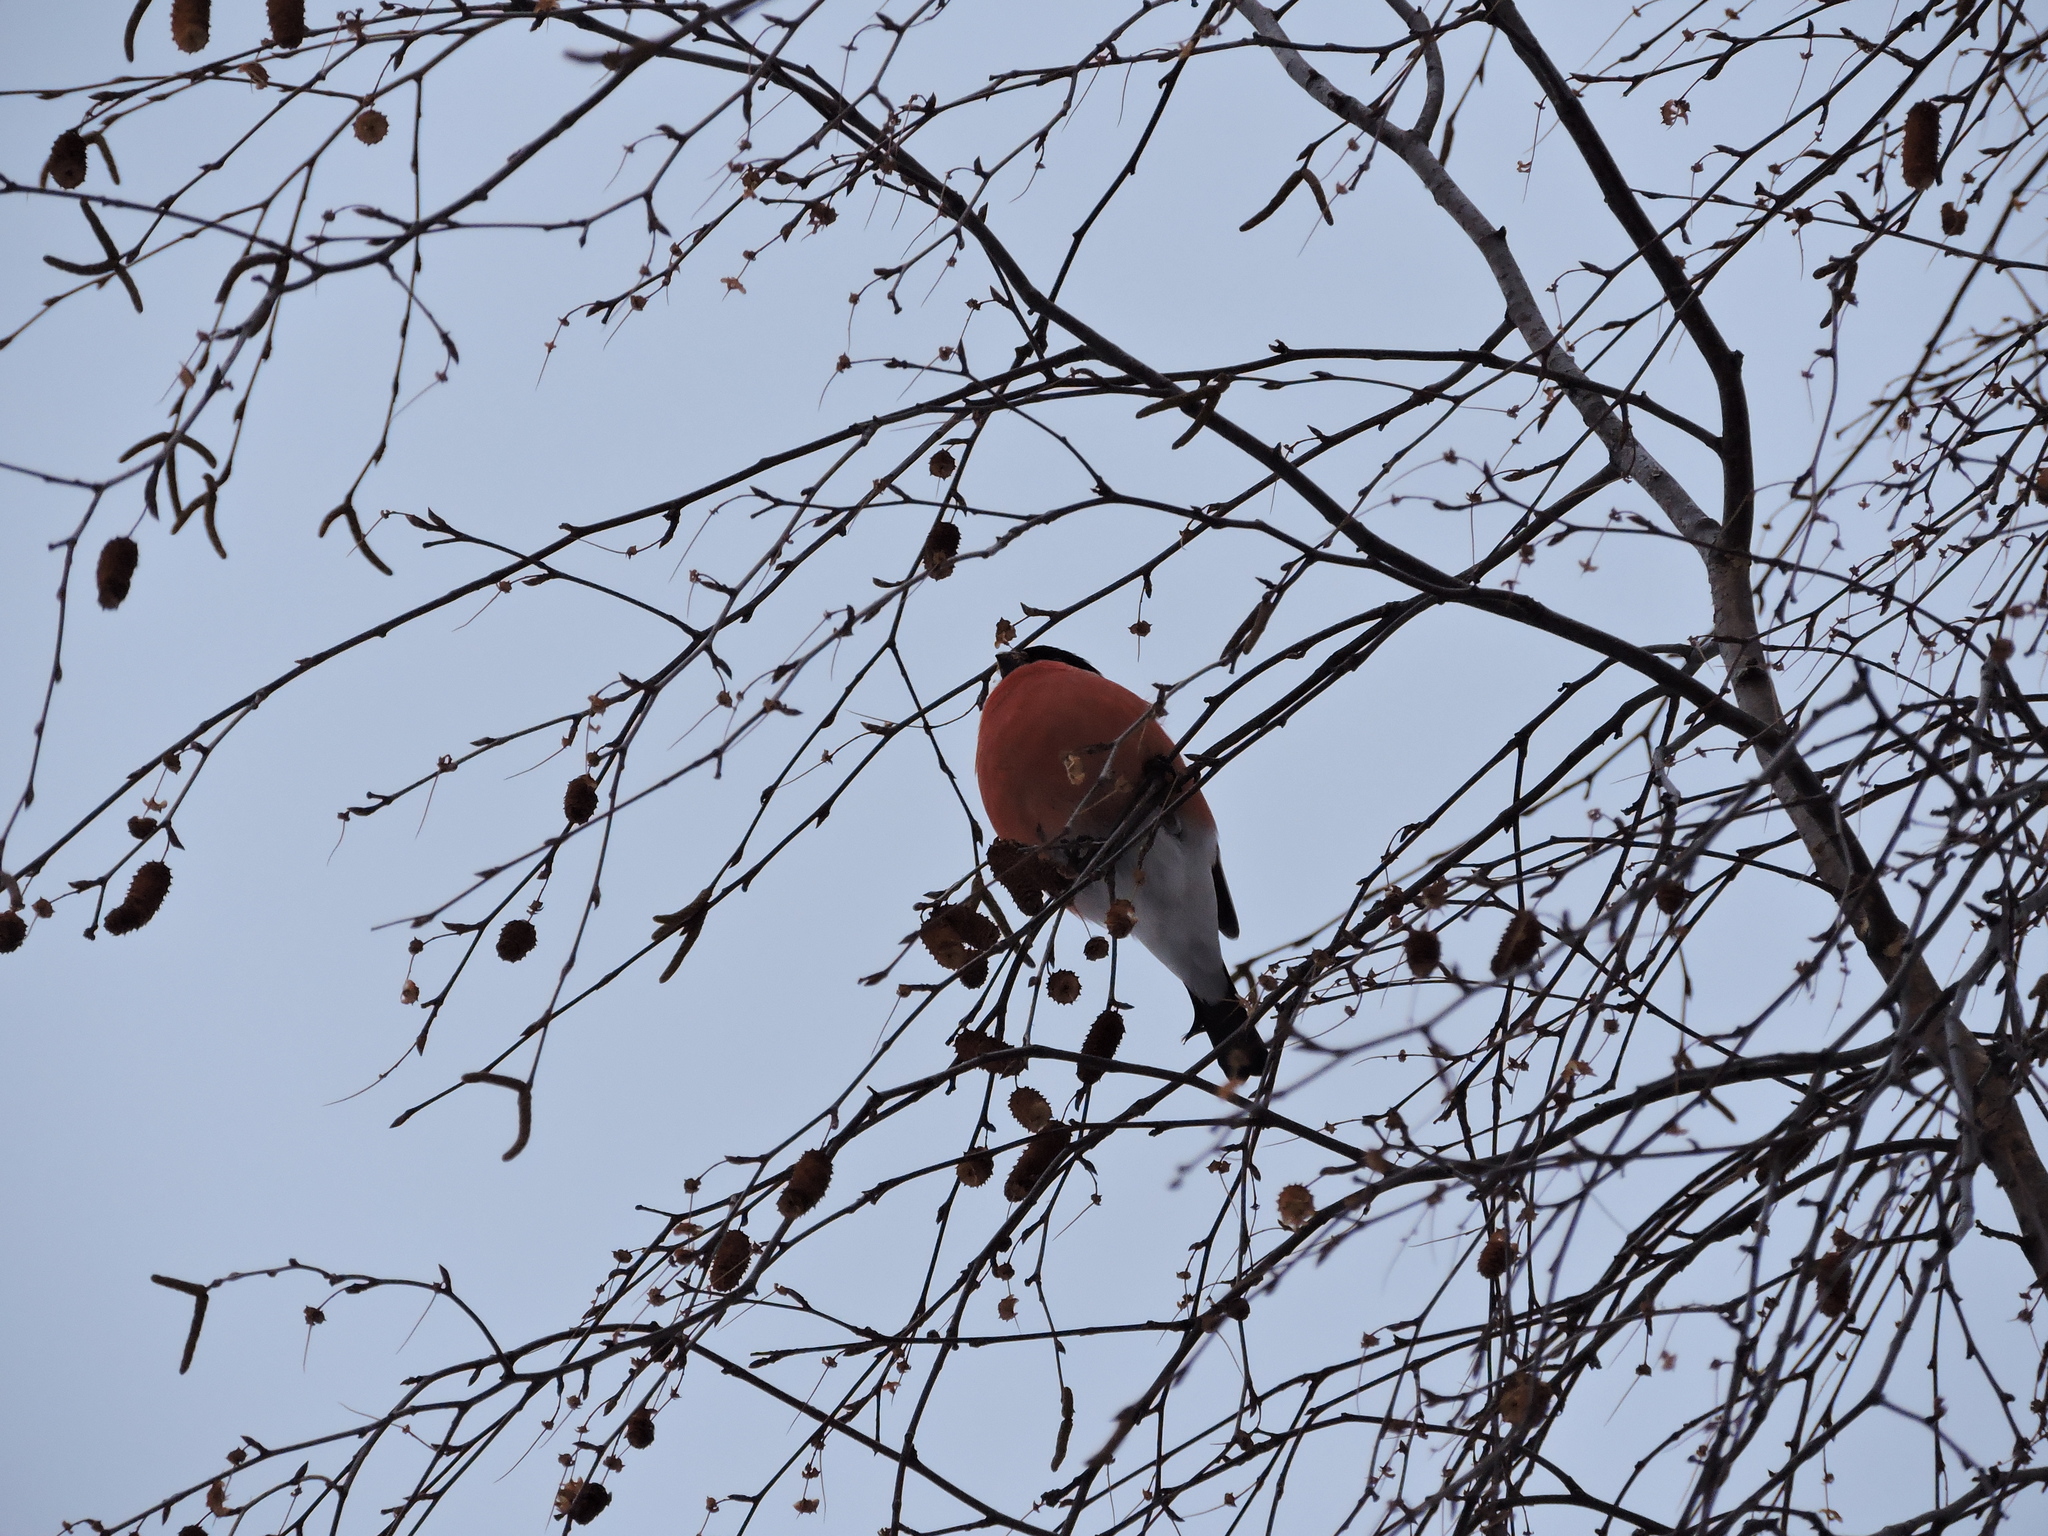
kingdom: Animalia
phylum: Chordata
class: Aves
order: Passeriformes
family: Fringillidae
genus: Pyrrhula
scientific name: Pyrrhula pyrrhula
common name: Eurasian bullfinch
